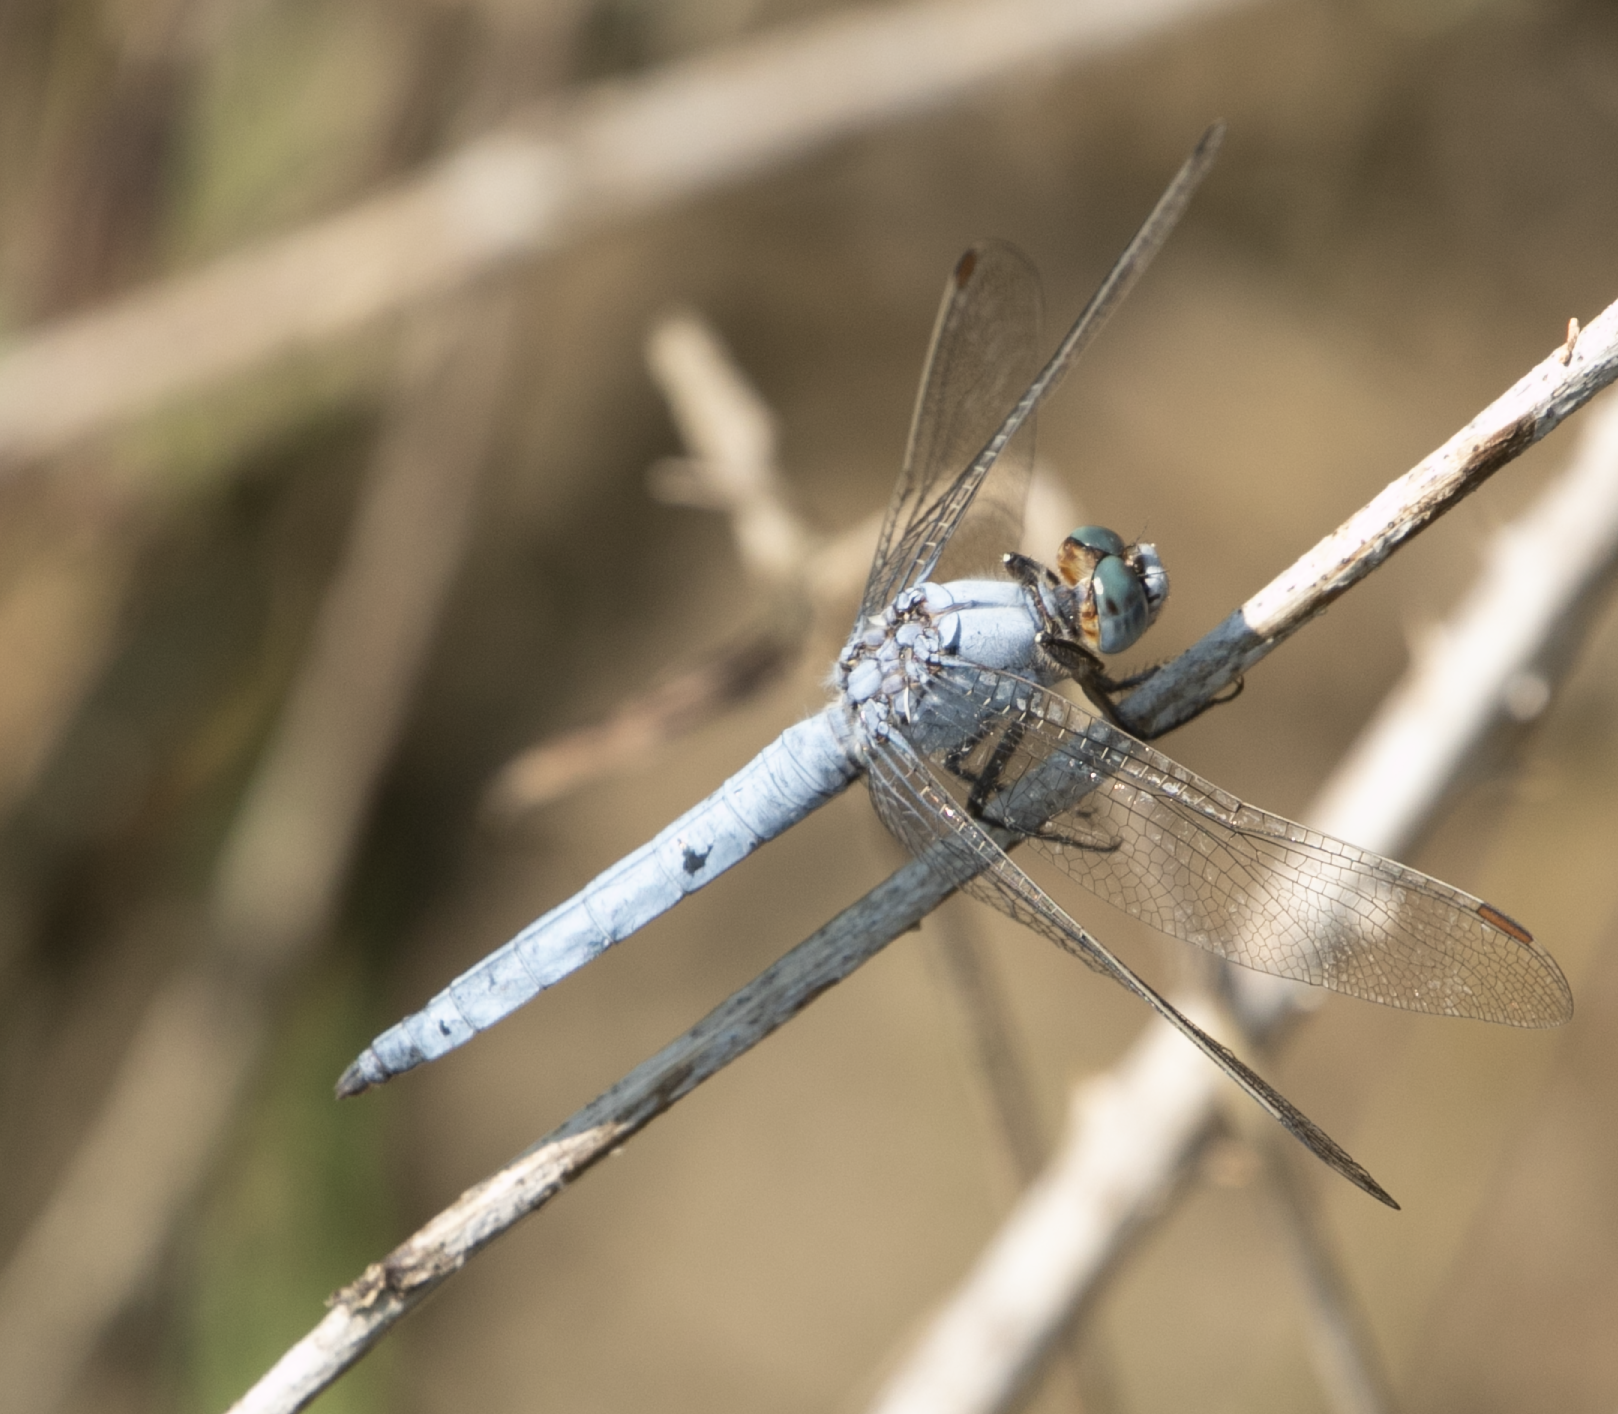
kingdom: Animalia
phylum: Arthropoda
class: Insecta
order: Odonata
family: Libellulidae
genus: Orthetrum
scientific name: Orthetrum brunneum
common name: Southern skimmer
